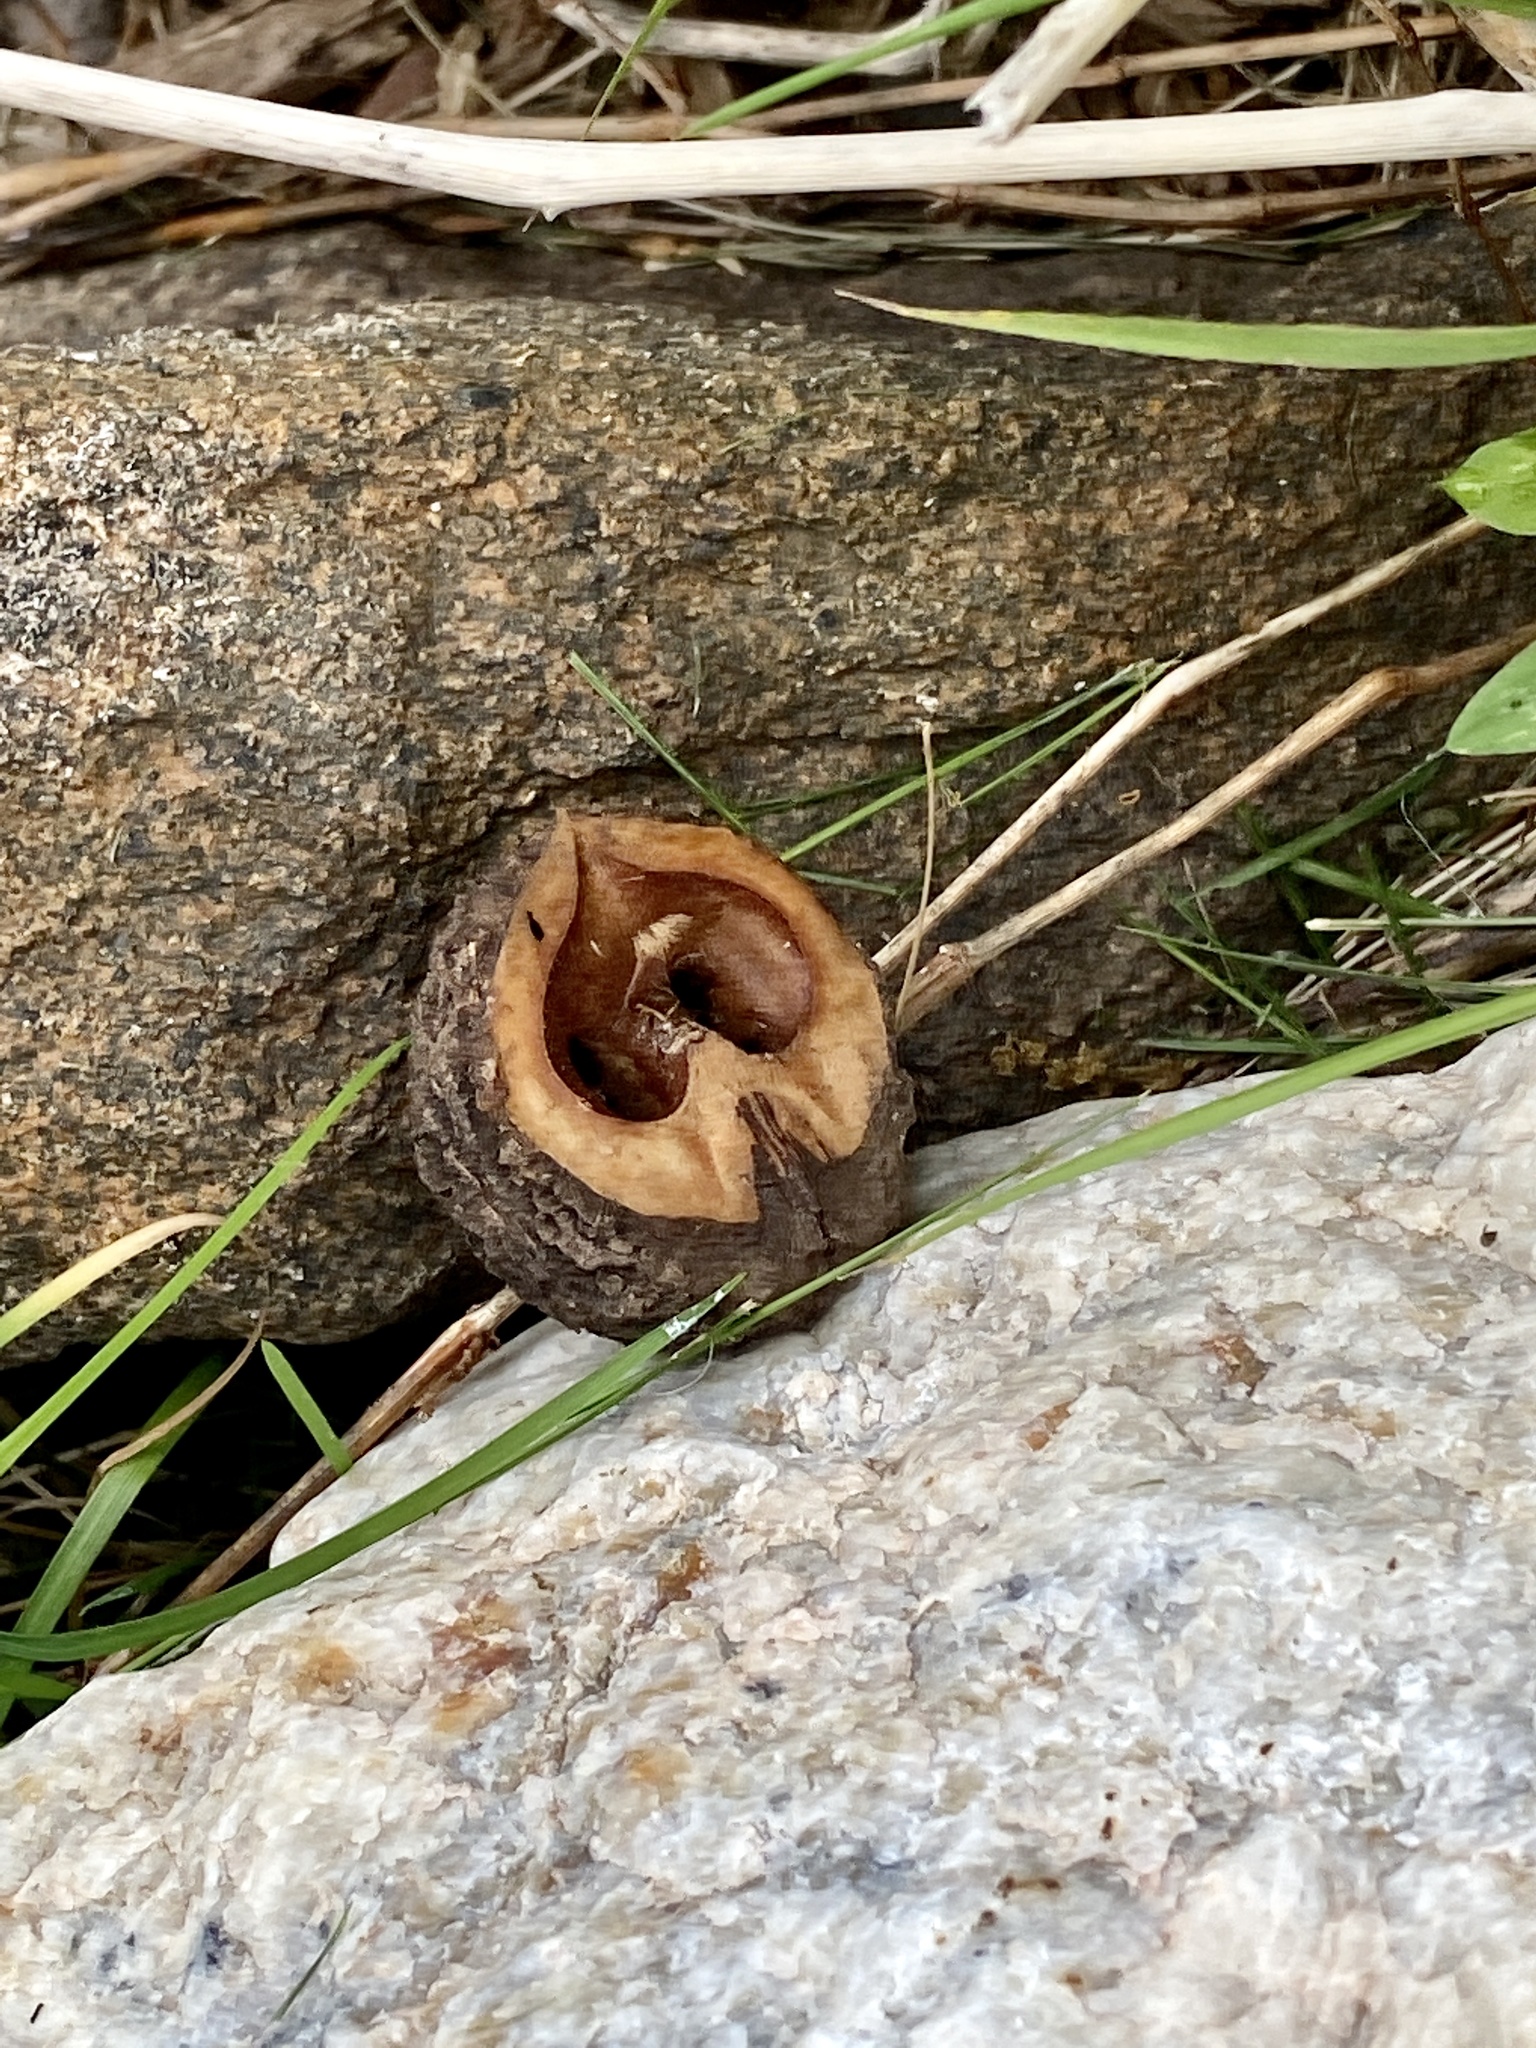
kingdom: Plantae
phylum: Tracheophyta
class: Magnoliopsida
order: Fagales
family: Juglandaceae
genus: Juglans
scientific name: Juglans nigra
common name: Black walnut
